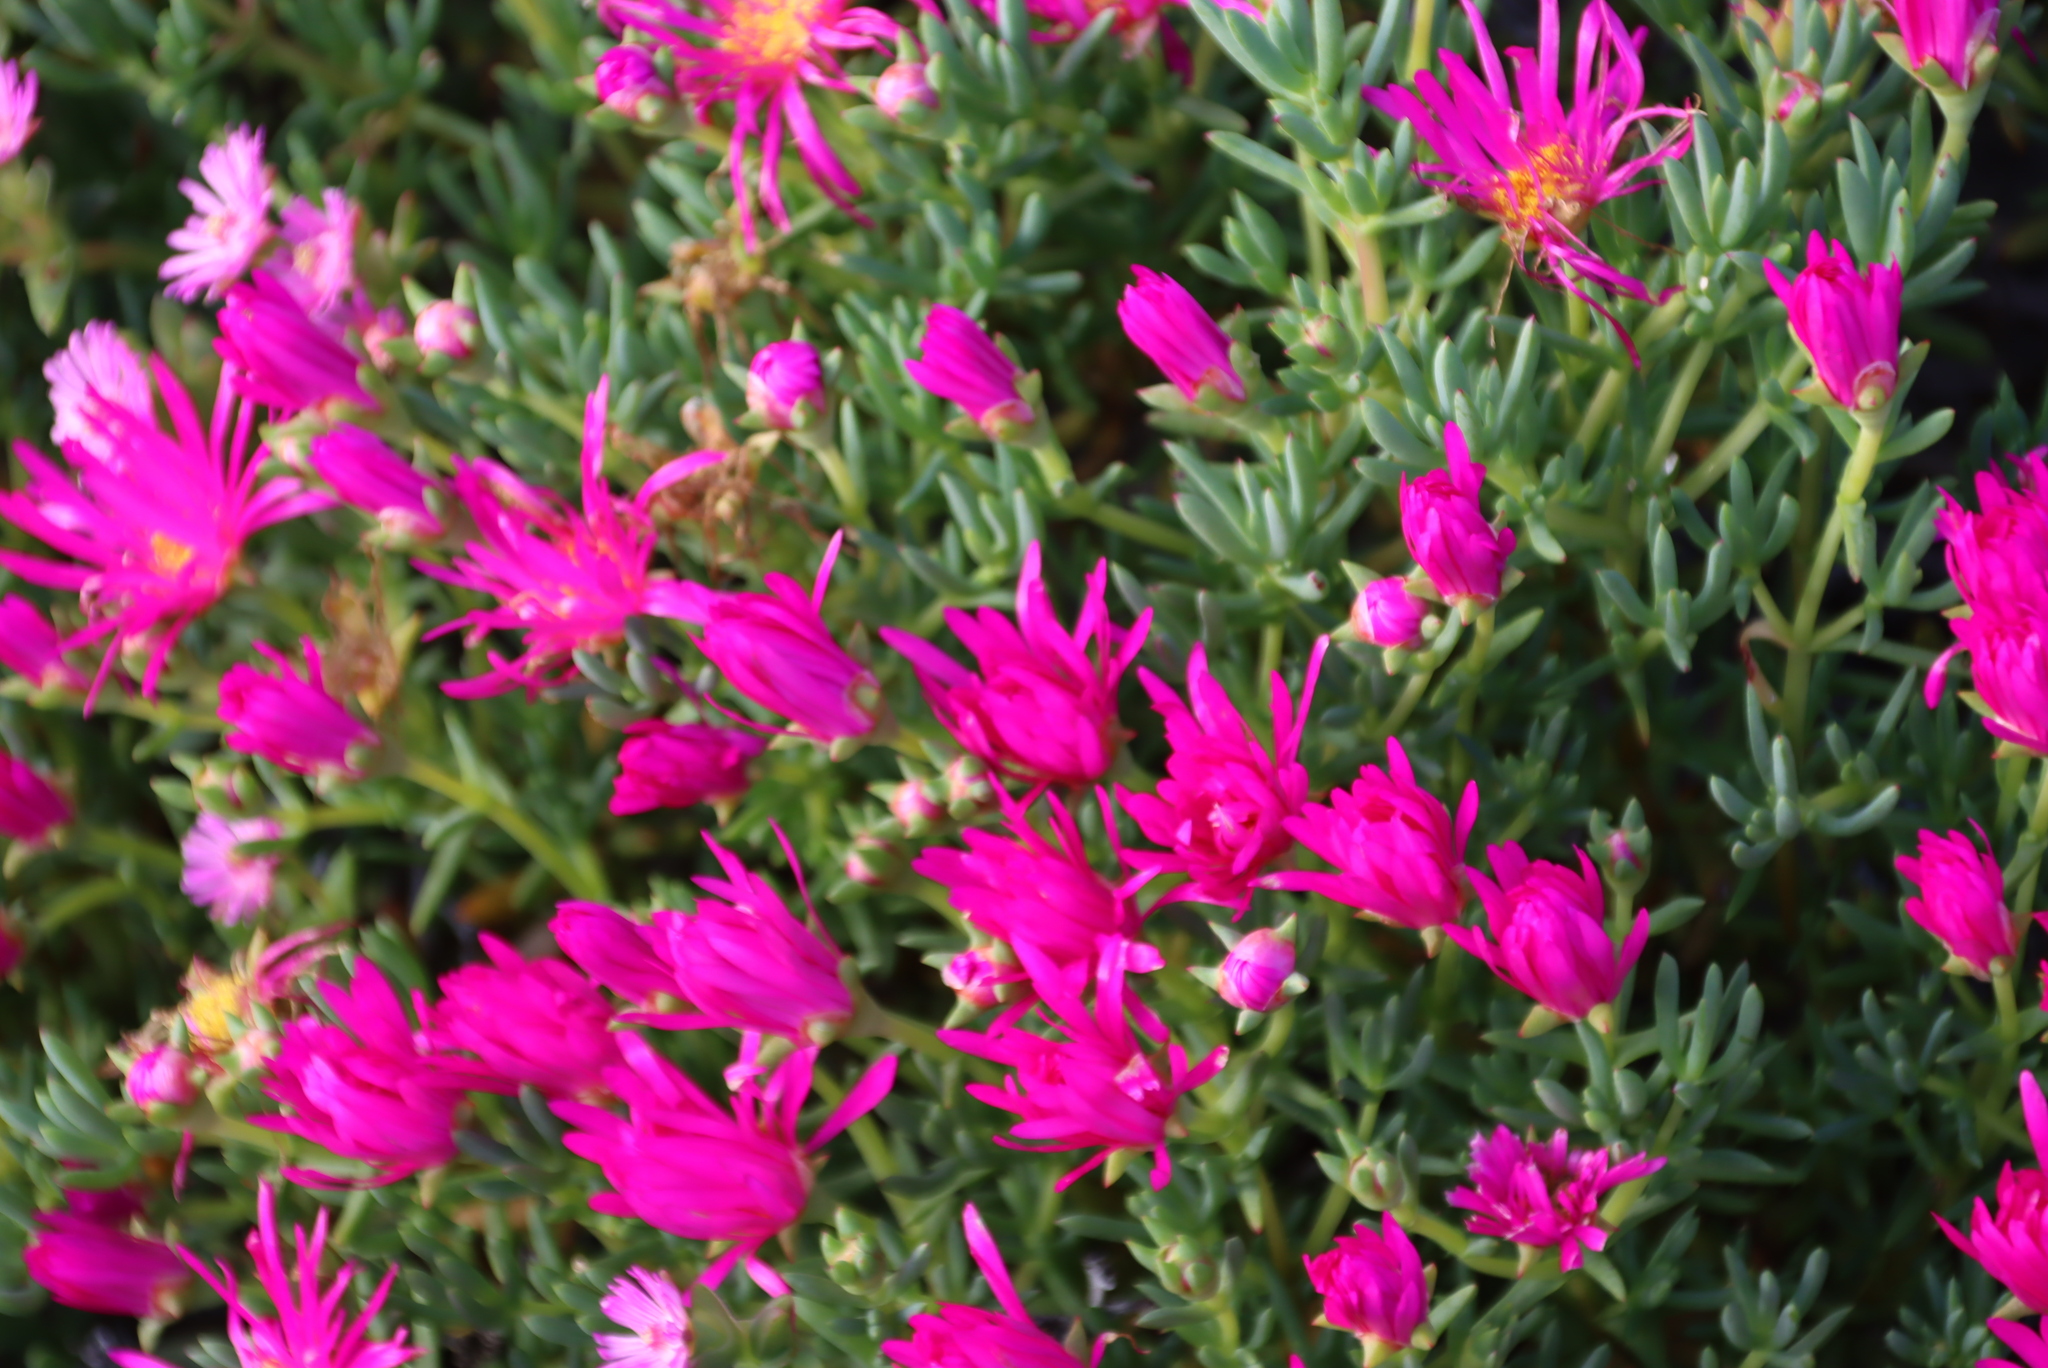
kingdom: Plantae
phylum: Tracheophyta
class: Magnoliopsida
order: Caryophyllales
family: Aizoaceae
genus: Lampranthus
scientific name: Lampranthus stipulaceus
